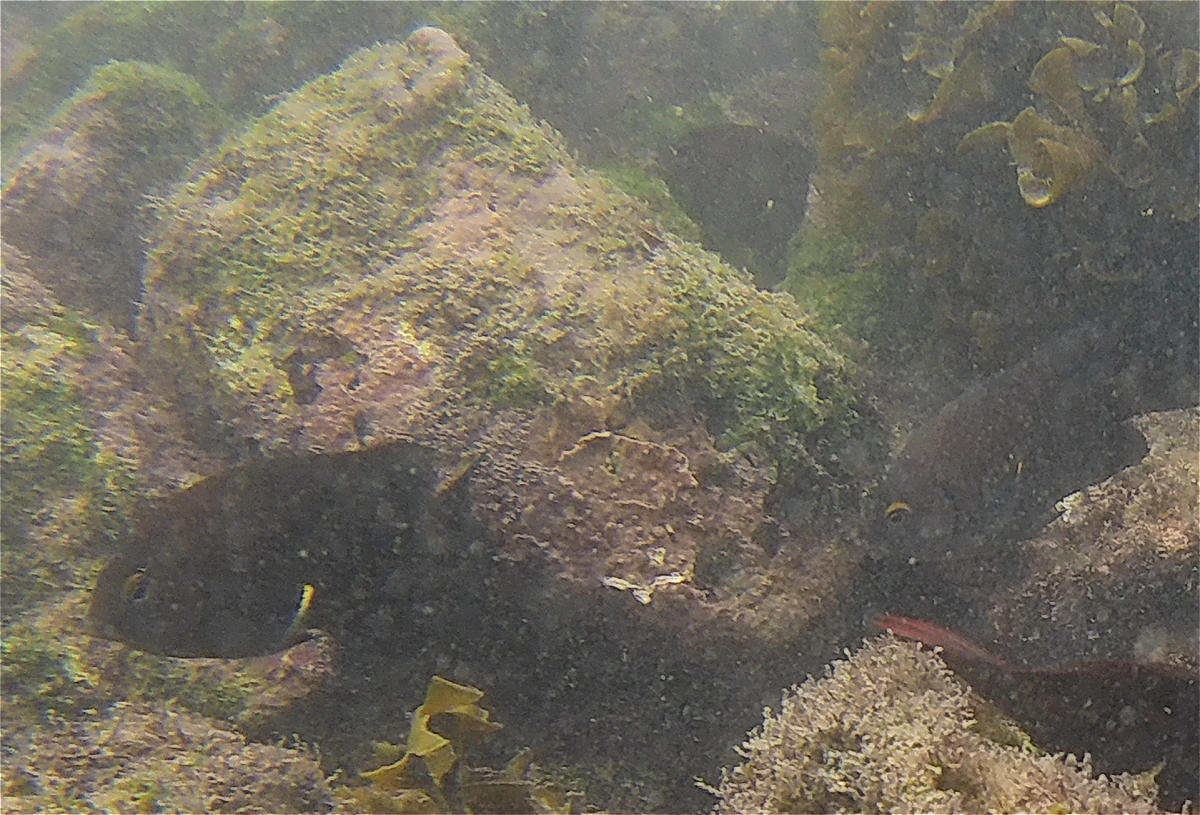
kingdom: Animalia
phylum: Chordata
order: Perciformes
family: Pomacentridae
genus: Stegastes
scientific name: Stegastes beebei
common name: Galapagos ringtail damselfish
